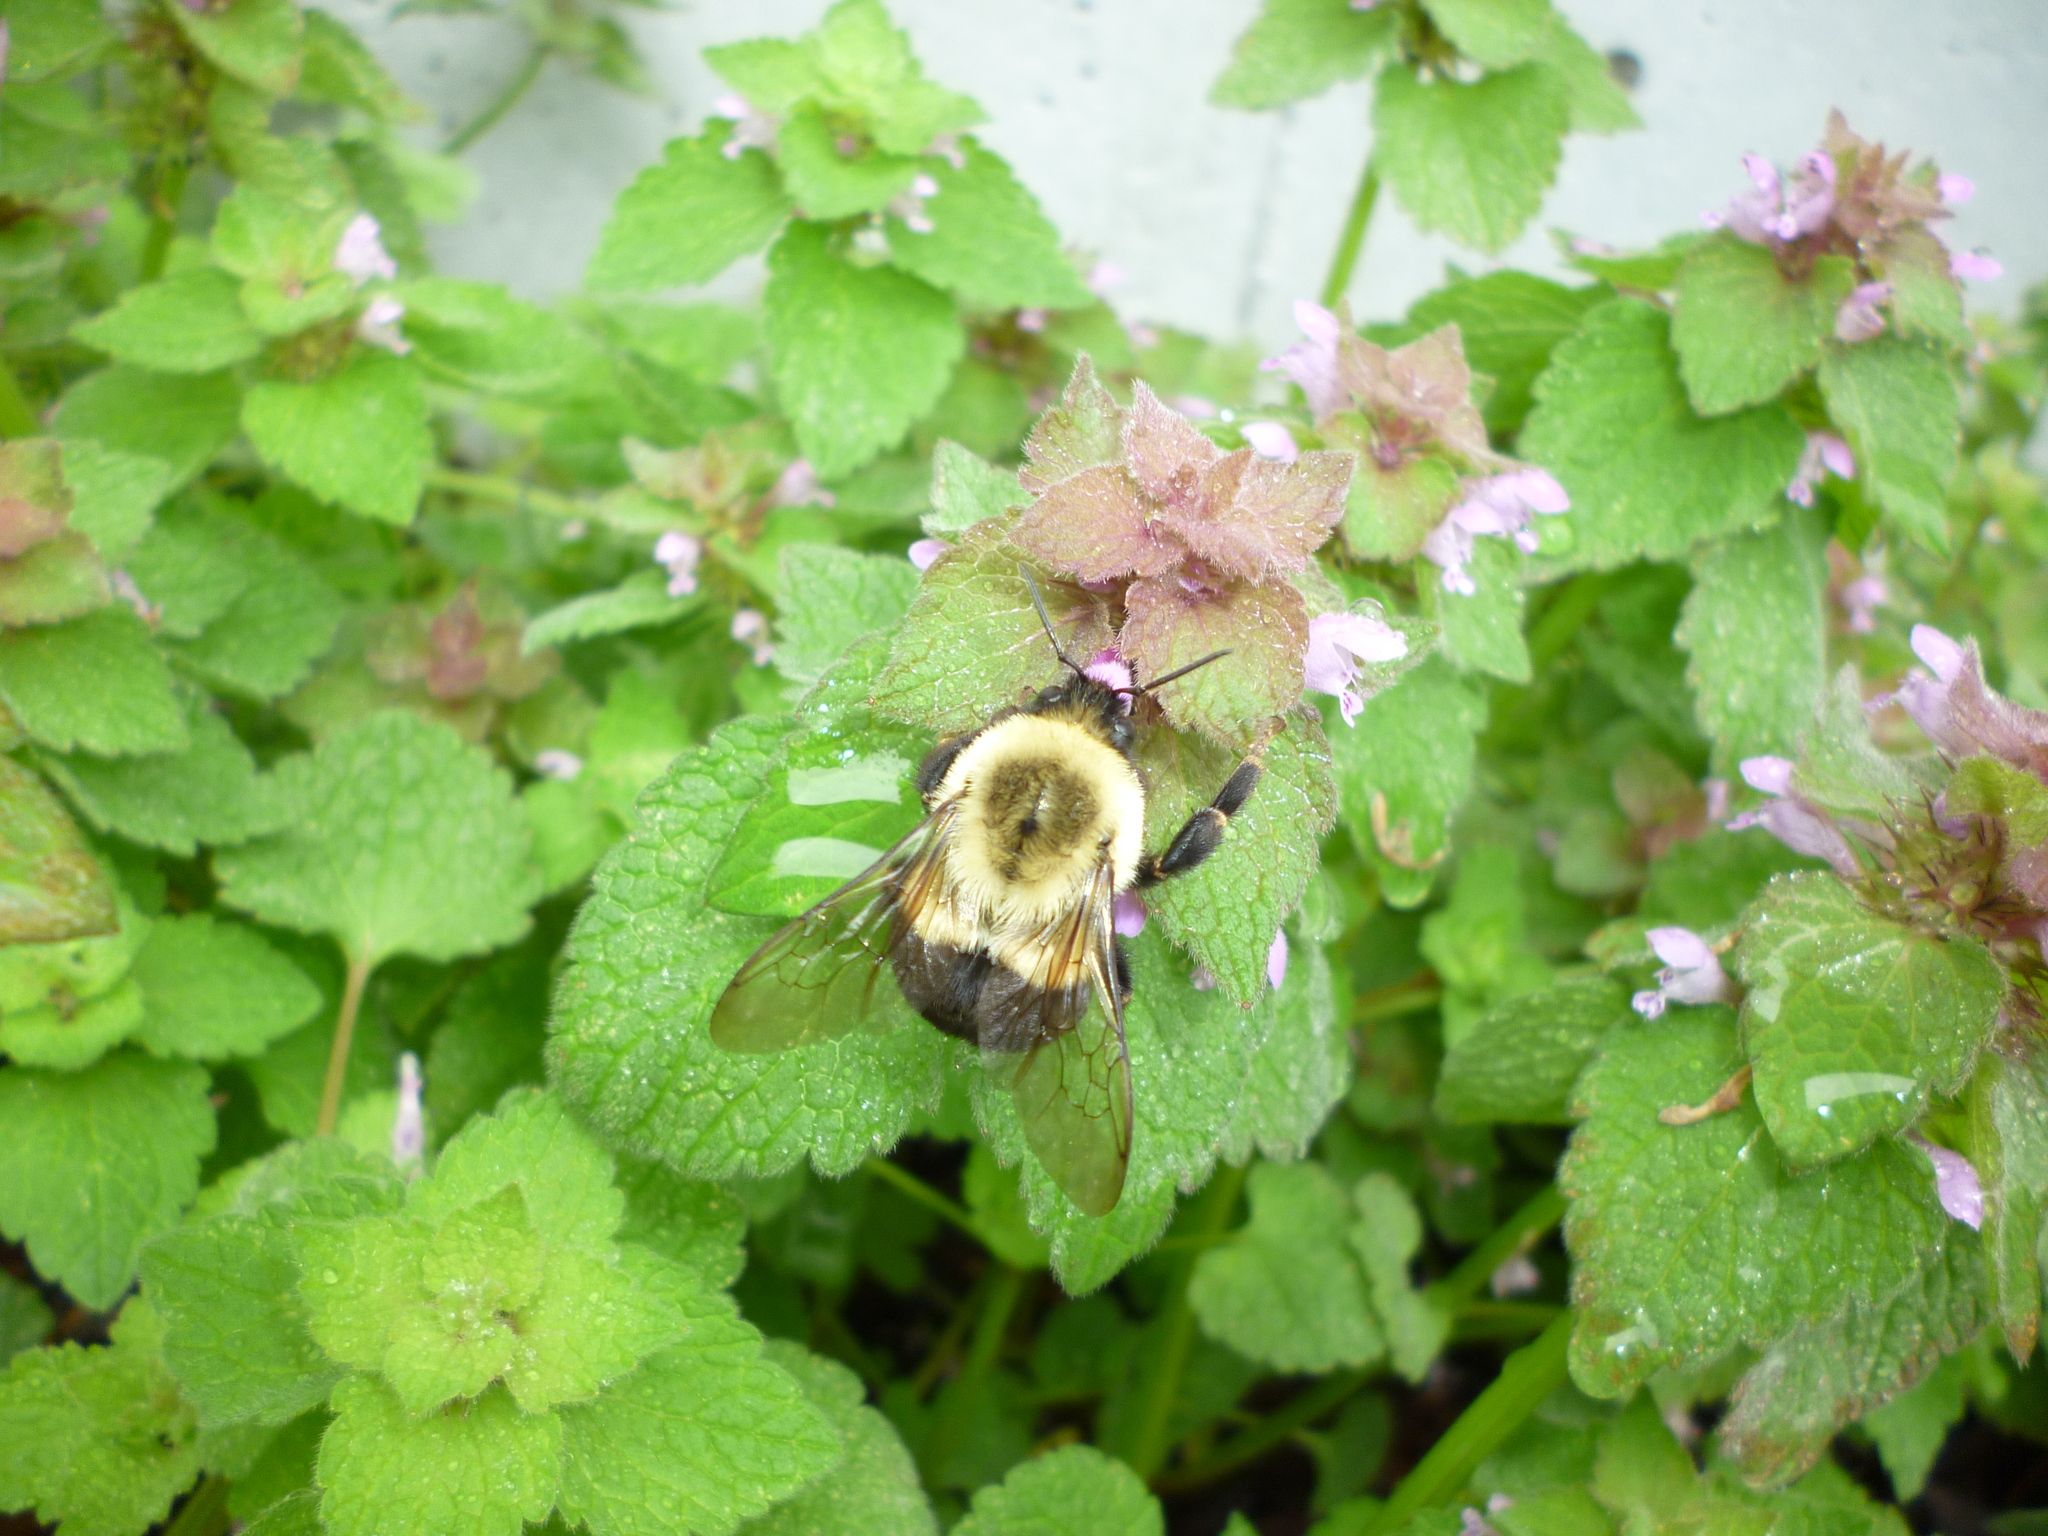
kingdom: Plantae
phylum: Tracheophyta
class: Magnoliopsida
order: Lamiales
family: Lamiaceae
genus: Lamium
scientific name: Lamium purpureum
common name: Red dead-nettle
